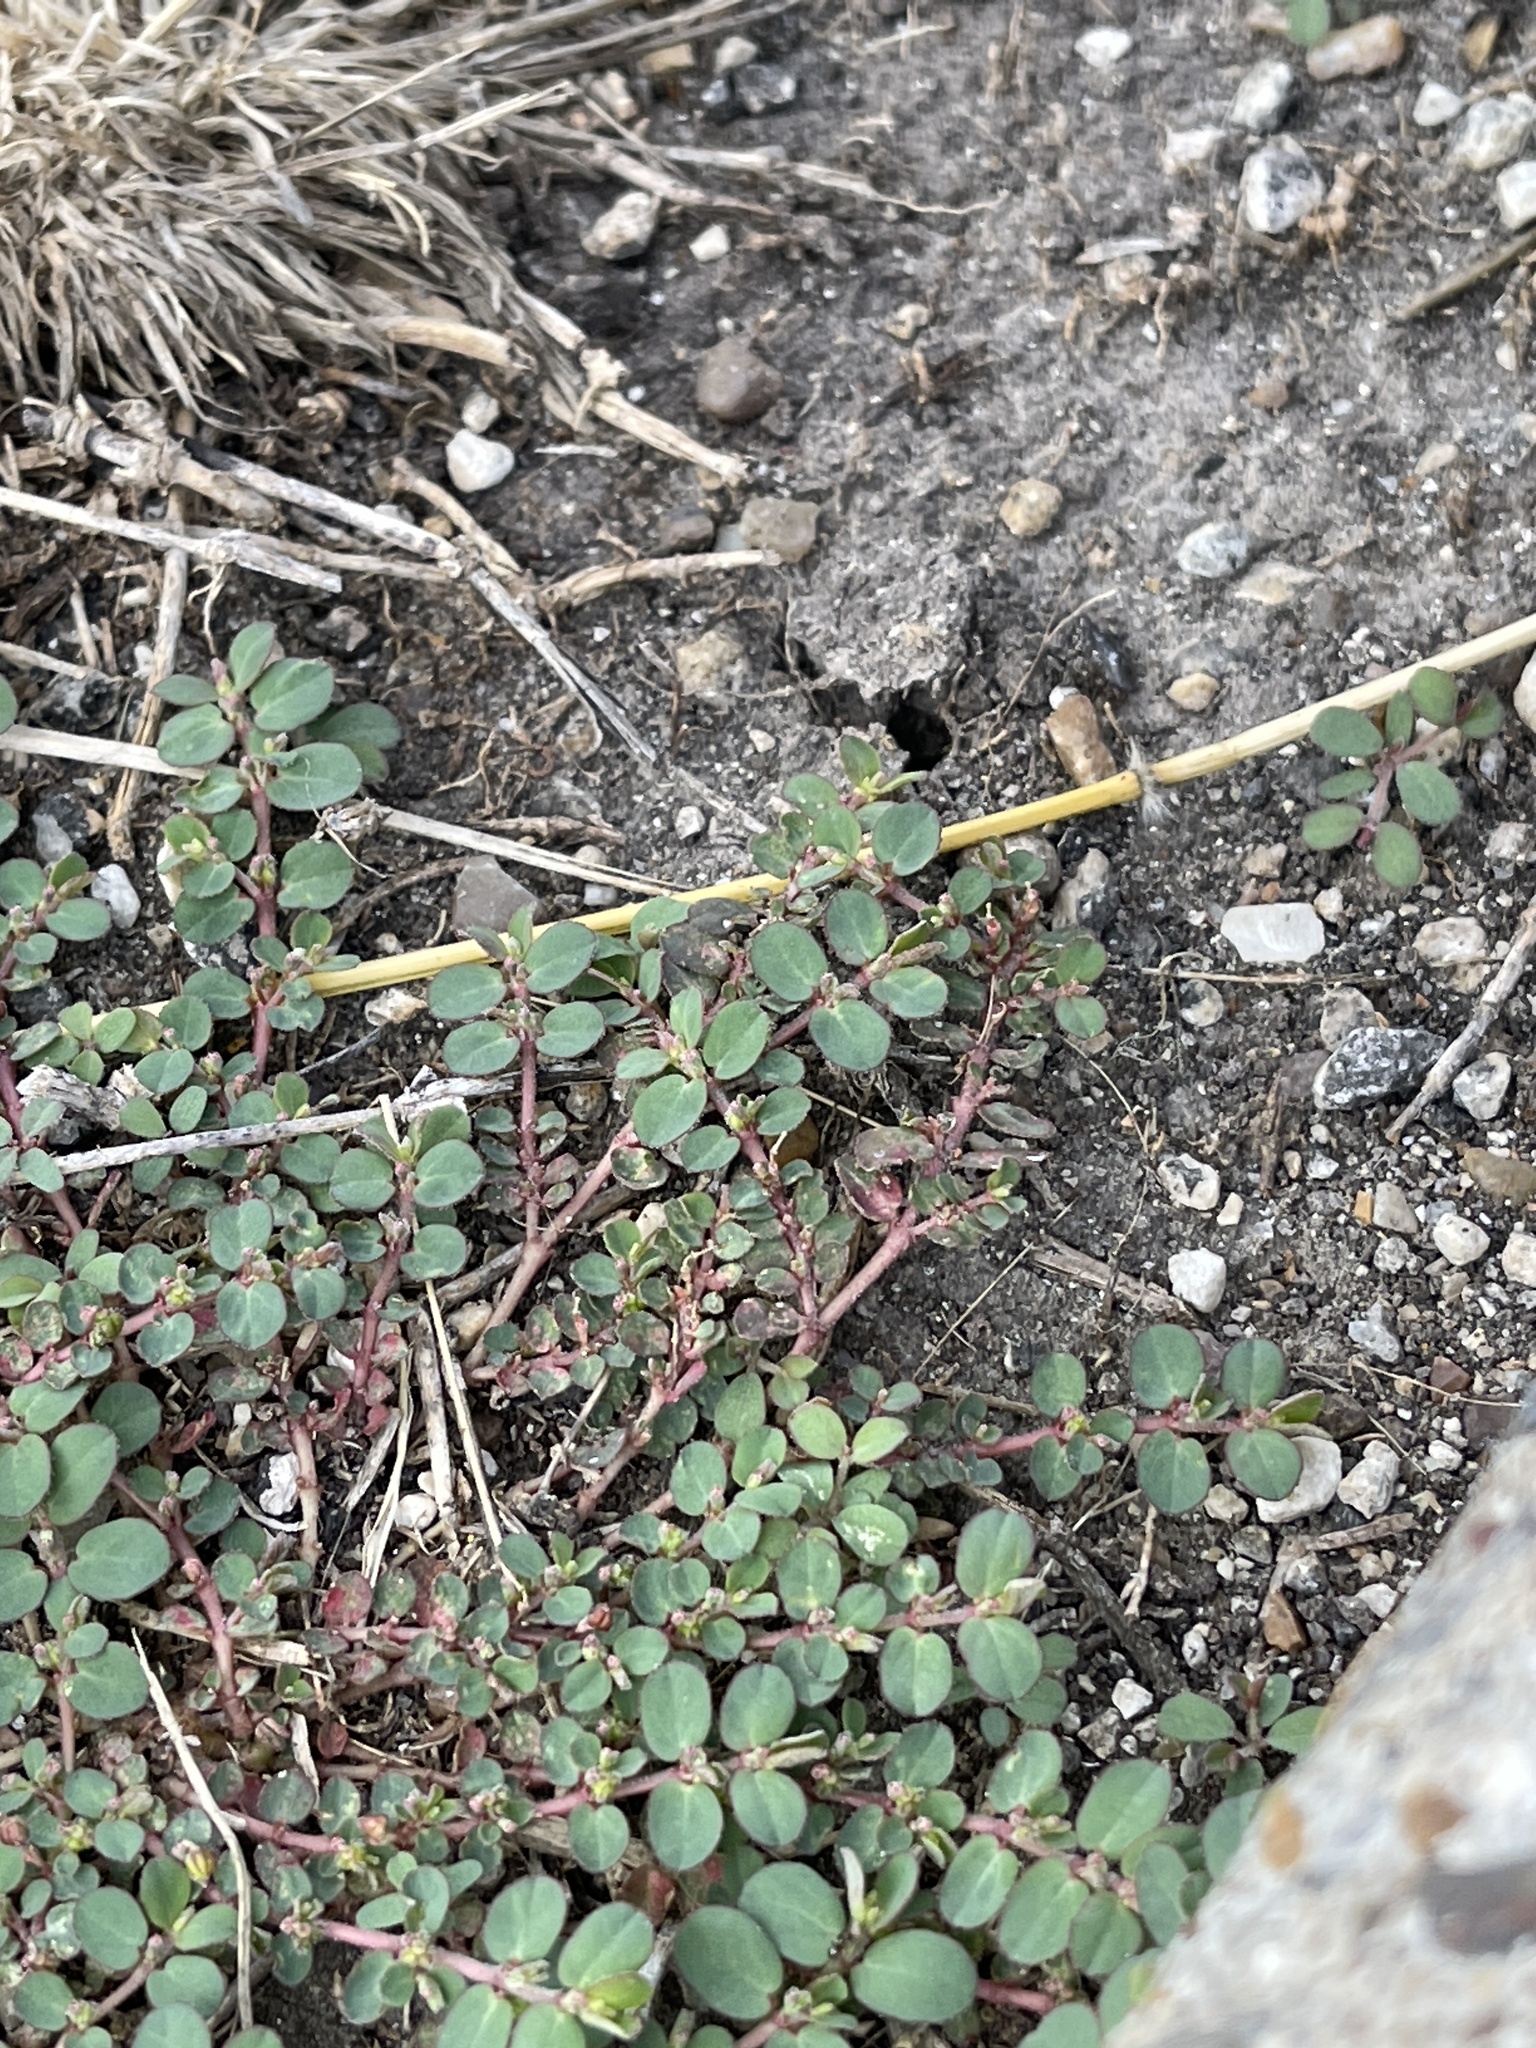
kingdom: Plantae
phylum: Tracheophyta
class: Magnoliopsida
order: Malpighiales
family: Euphorbiaceae
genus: Euphorbia
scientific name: Euphorbia prostrata
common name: Prostrate sandmat
